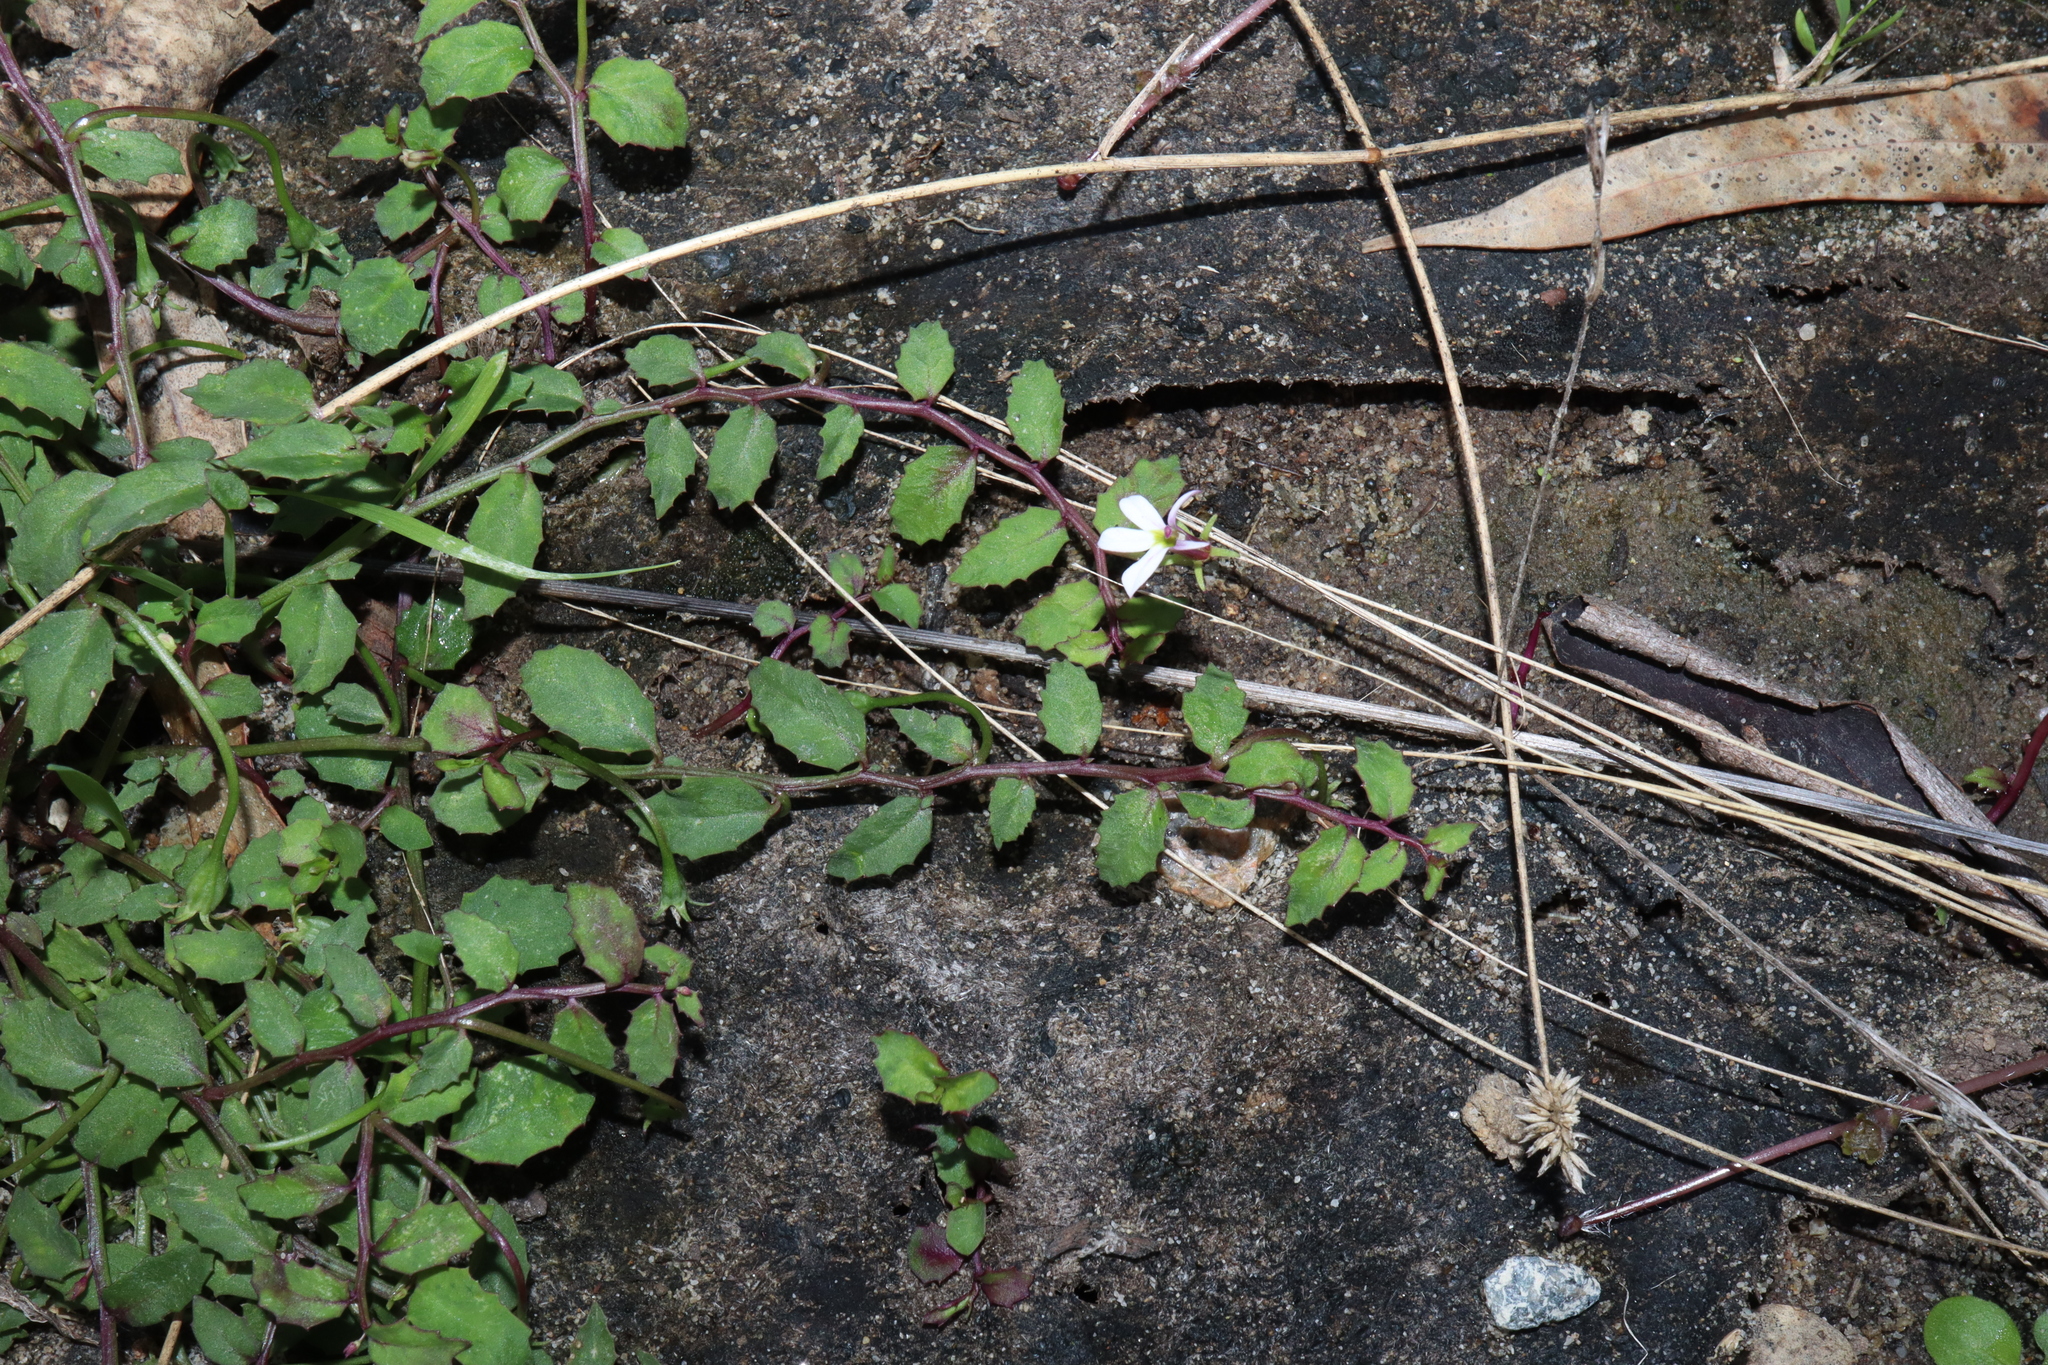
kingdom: Plantae
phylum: Tracheophyta
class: Magnoliopsida
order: Asterales
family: Campanulaceae
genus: Lobelia
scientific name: Lobelia purpurascens
